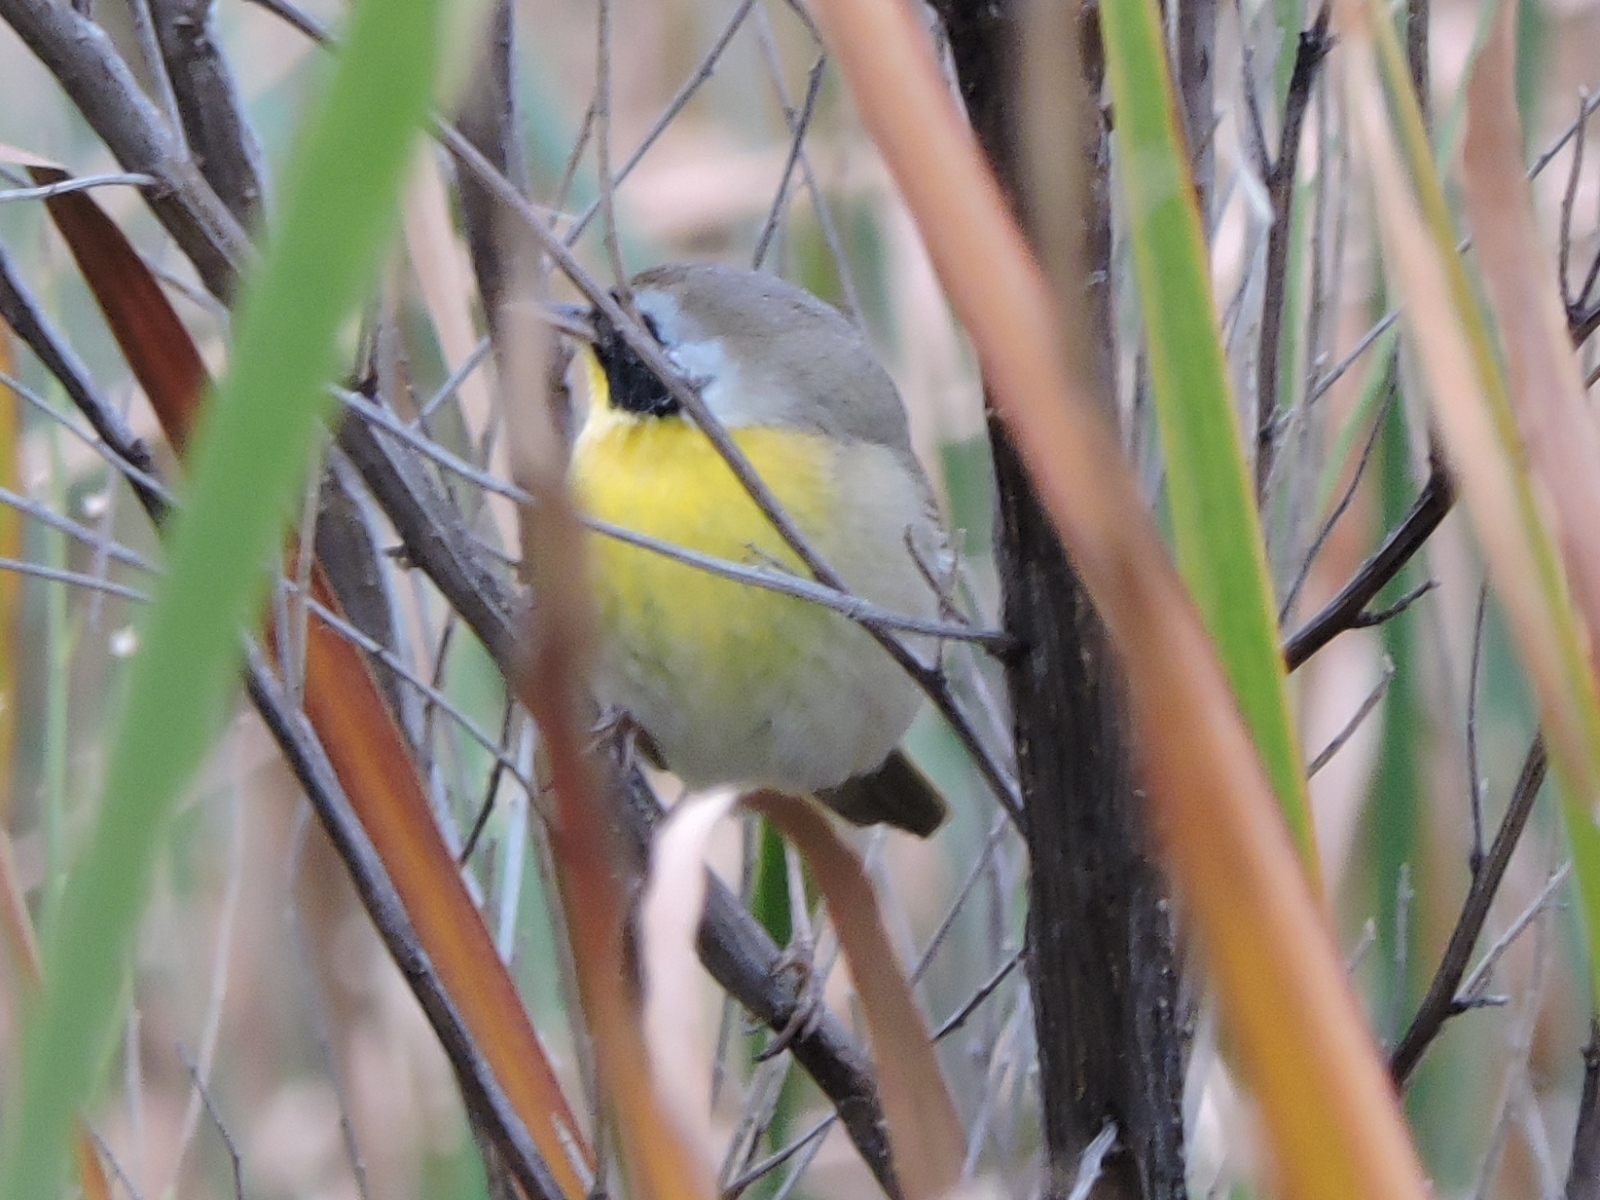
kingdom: Animalia
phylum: Chordata
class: Aves
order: Passeriformes
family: Parulidae
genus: Geothlypis
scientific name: Geothlypis trichas
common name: Common yellowthroat
